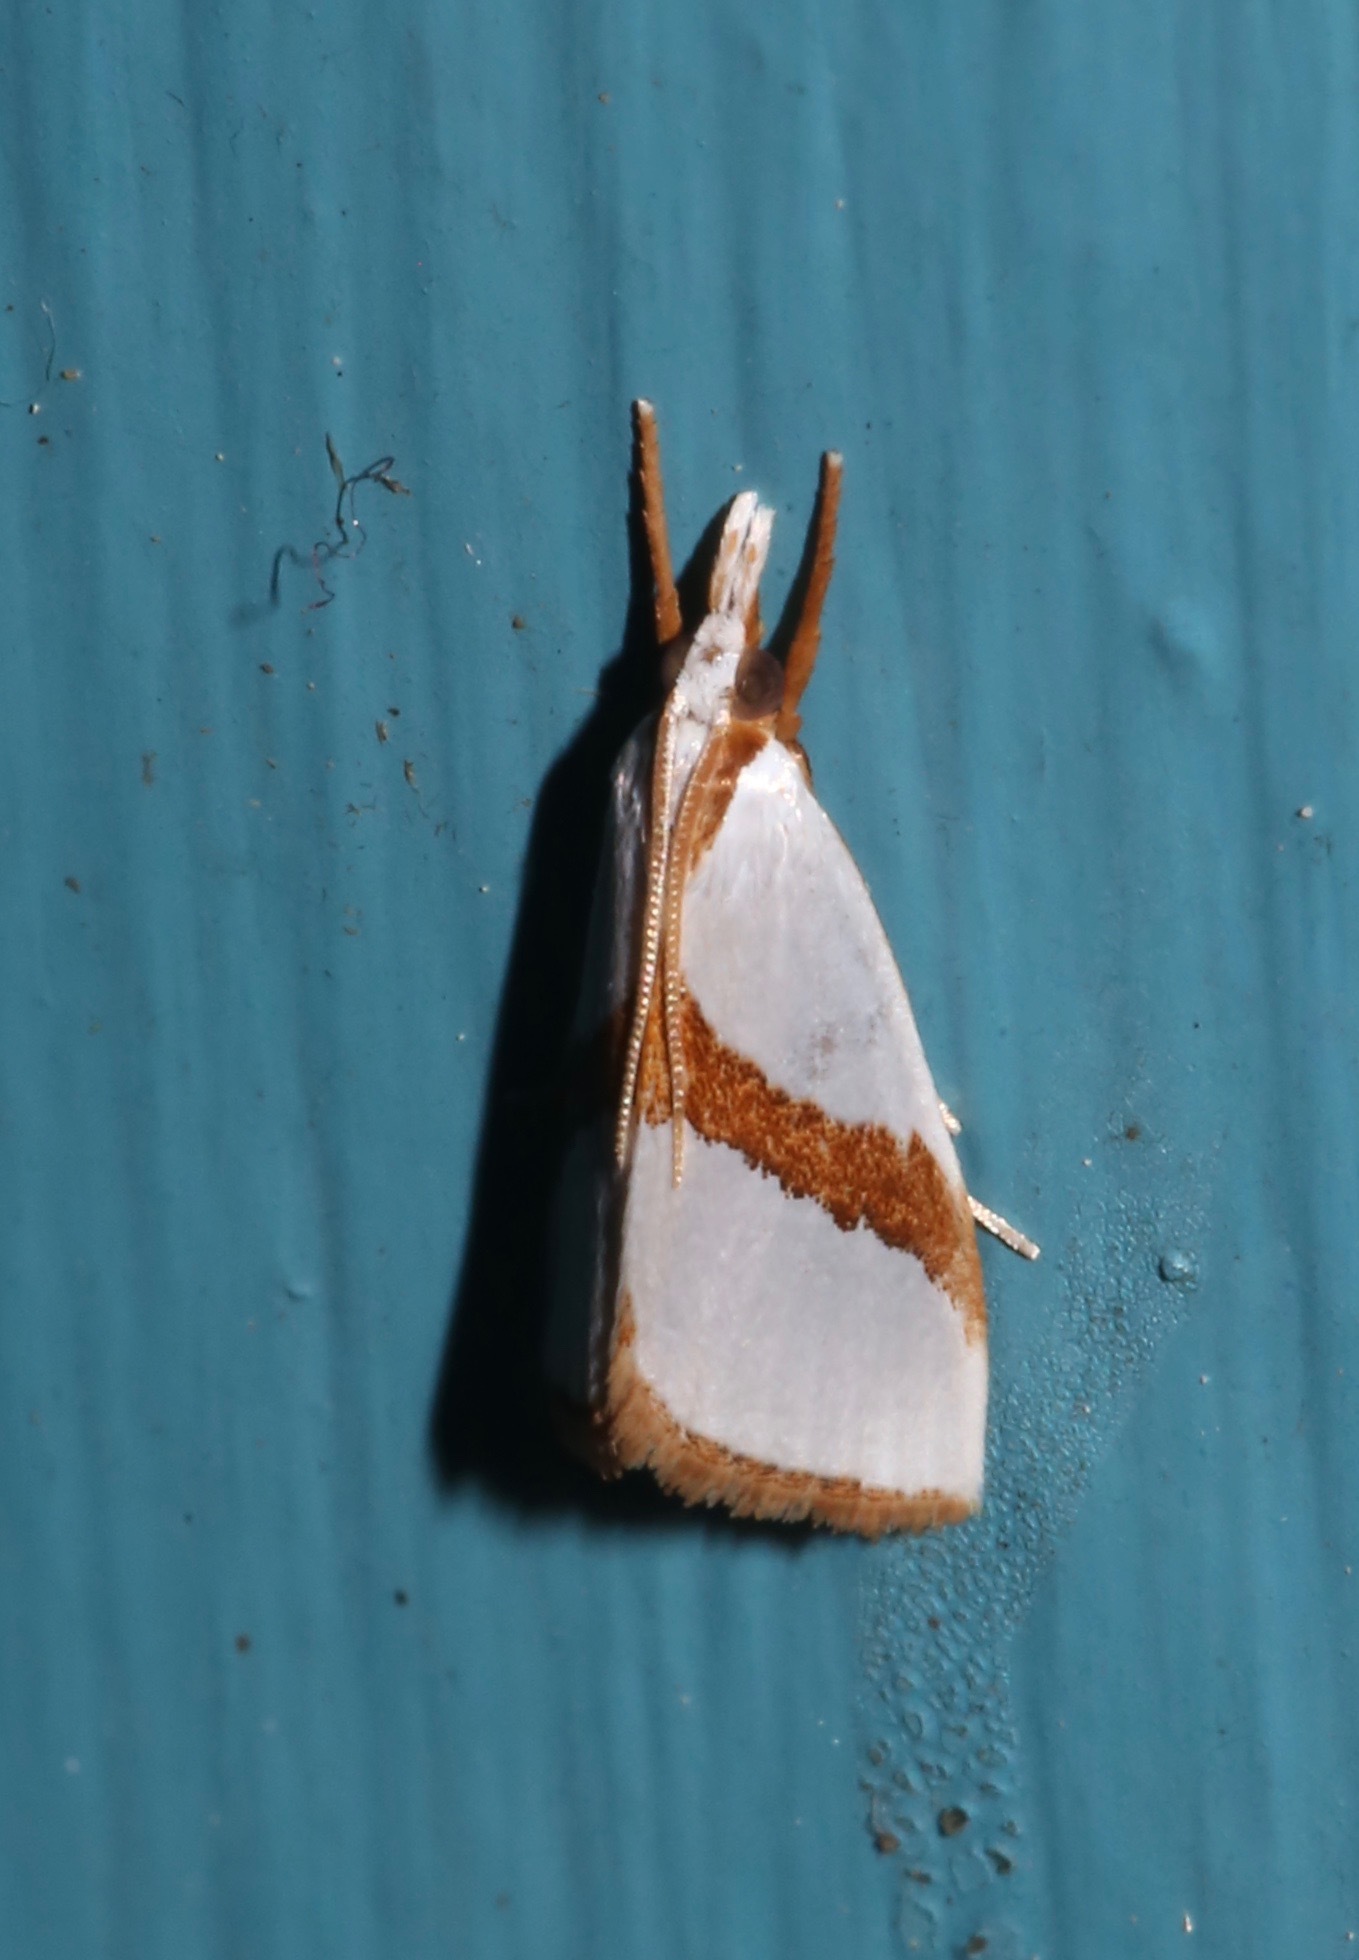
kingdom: Animalia
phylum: Arthropoda
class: Insecta
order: Lepidoptera
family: Crambidae
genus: Vaxi
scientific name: Vaxi critica
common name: Straight-lined vaxi moth
